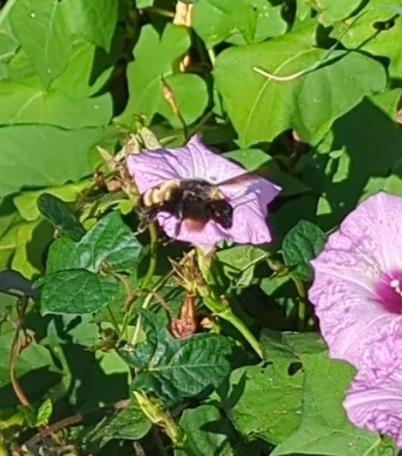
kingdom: Animalia
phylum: Arthropoda
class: Insecta
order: Hymenoptera
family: Apidae
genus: Bombus
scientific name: Bombus pensylvanicus
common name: Bumble bee
